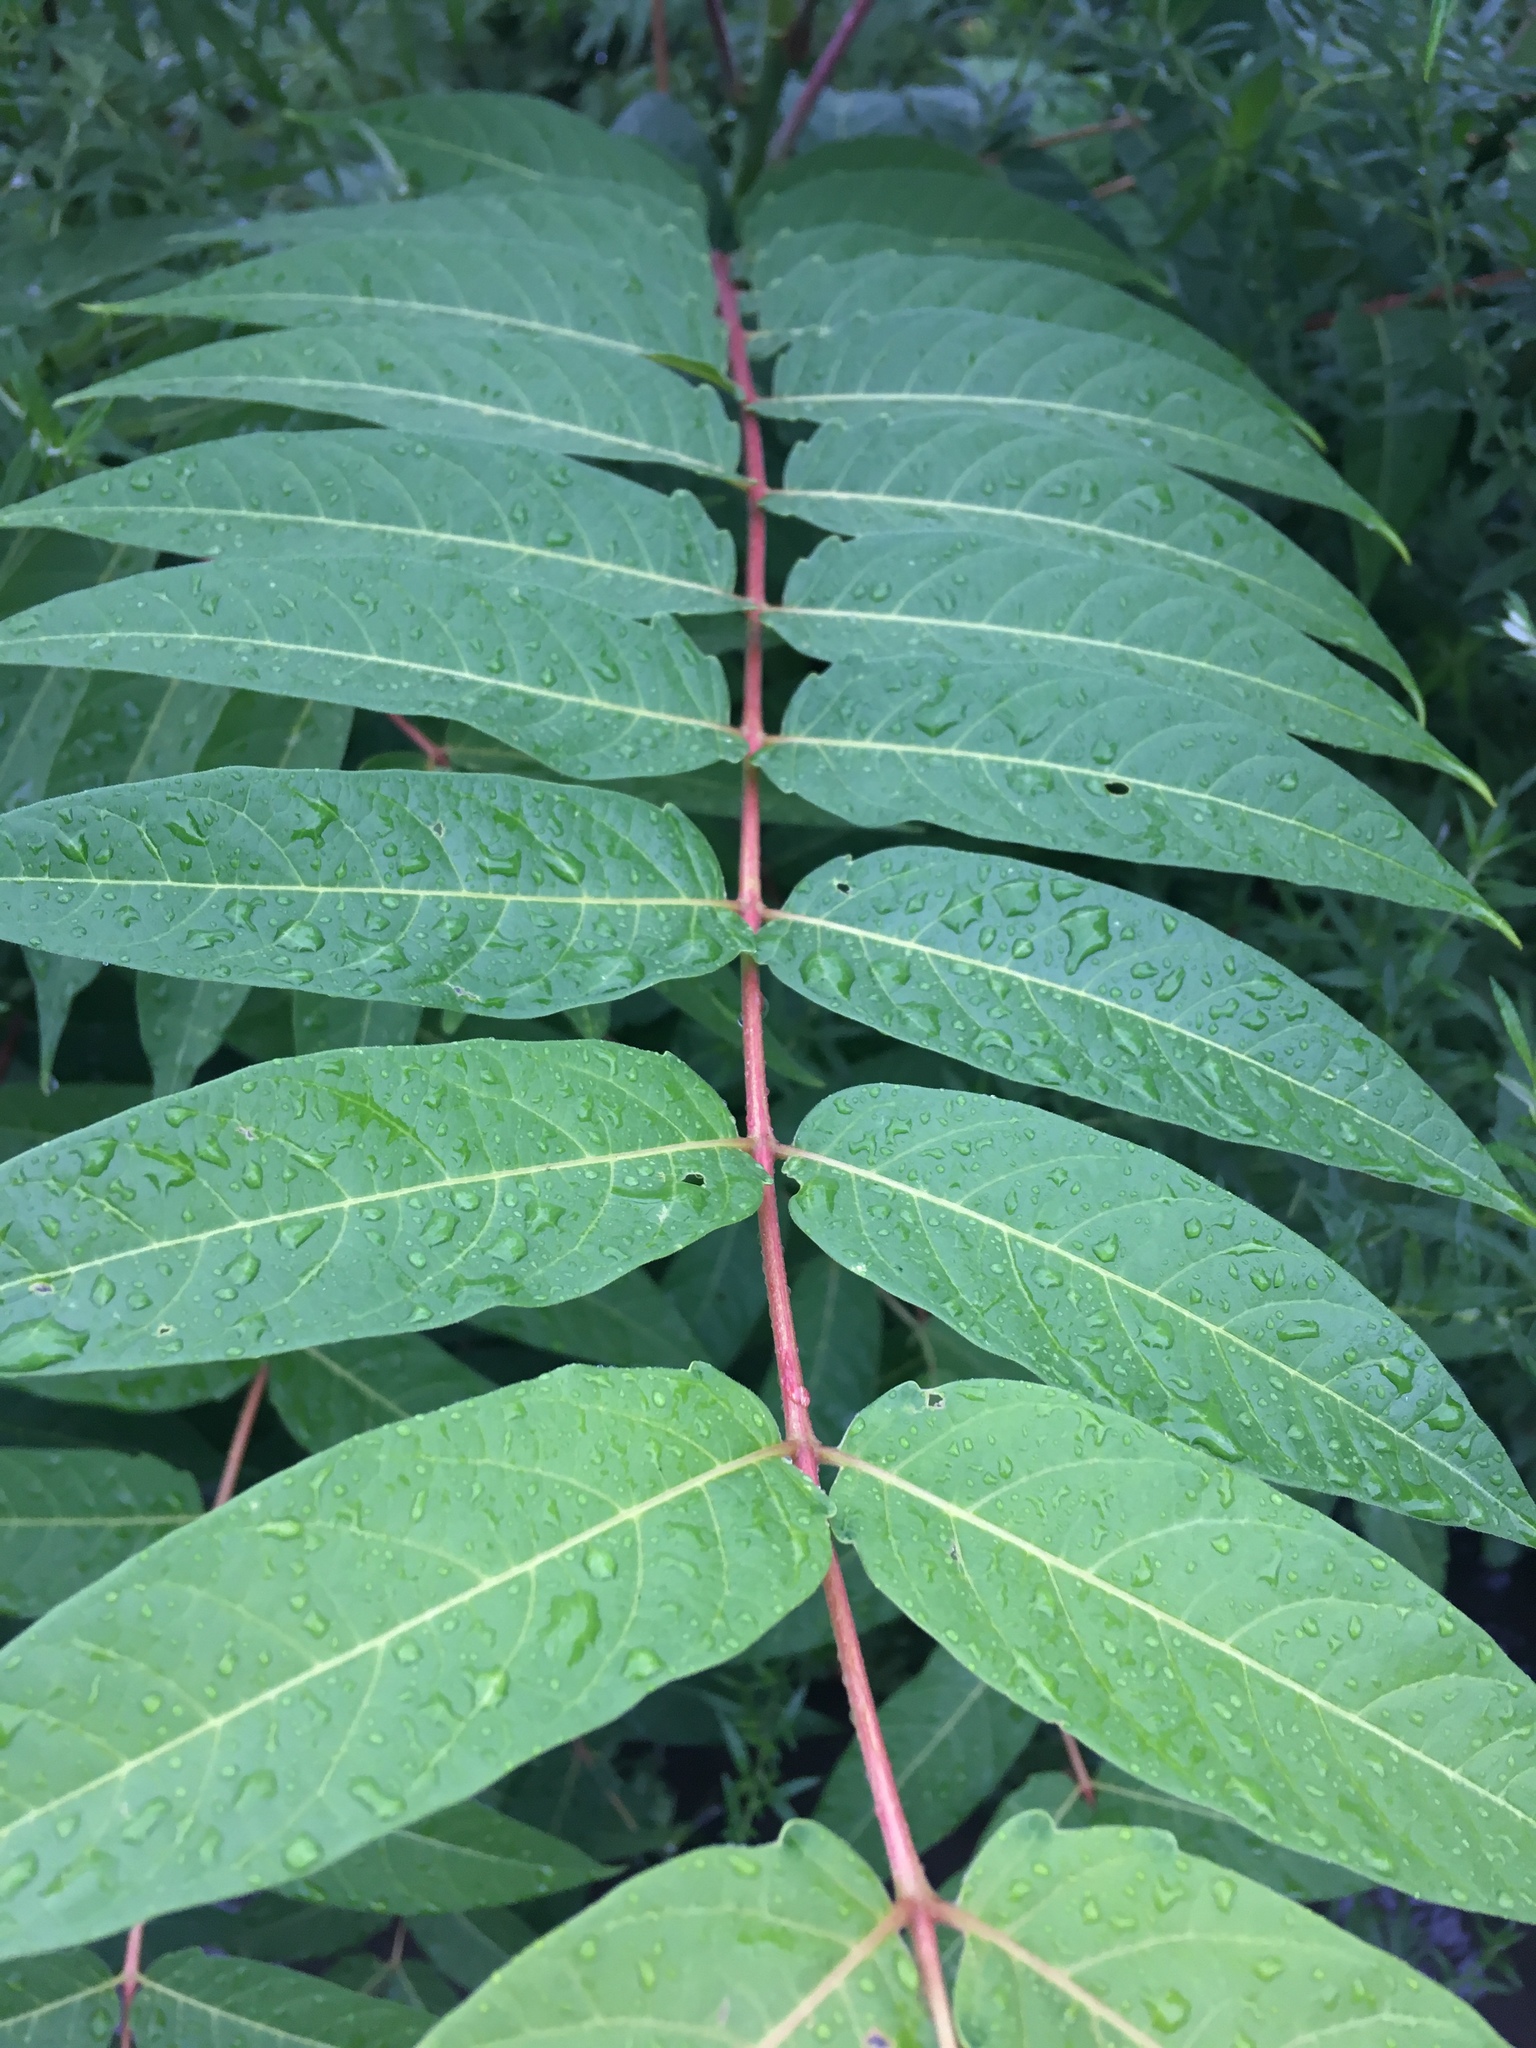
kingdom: Plantae
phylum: Tracheophyta
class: Magnoliopsida
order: Sapindales
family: Simaroubaceae
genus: Ailanthus
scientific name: Ailanthus altissima
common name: Tree-of-heaven
